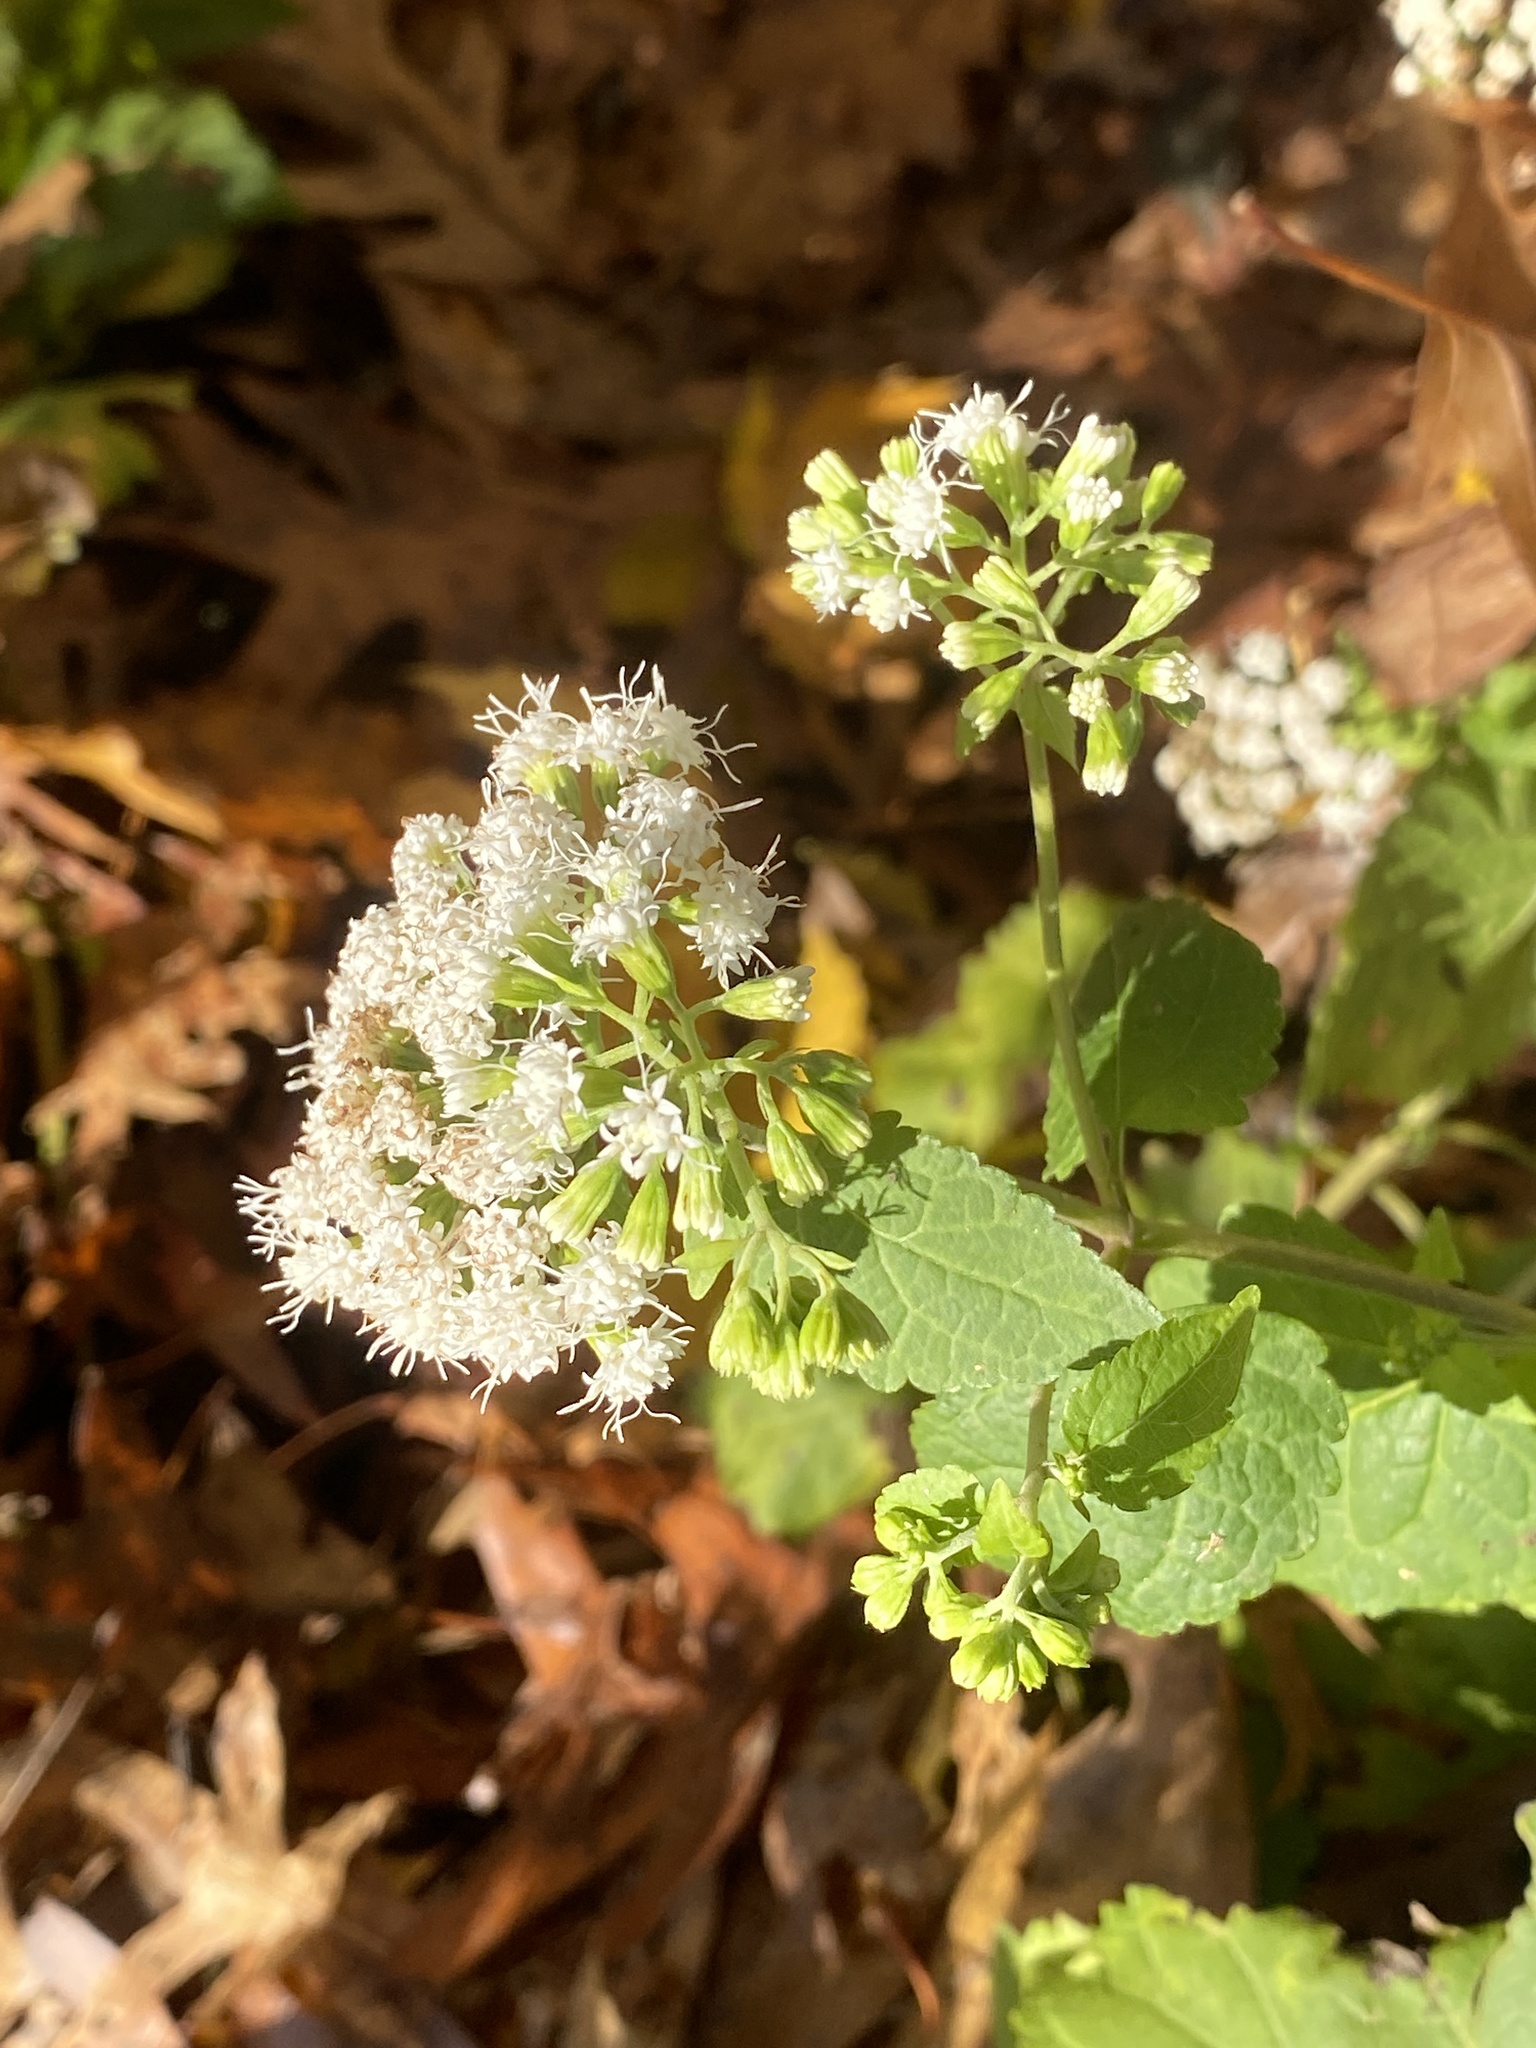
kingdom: Plantae
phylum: Tracheophyta
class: Magnoliopsida
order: Asterales
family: Asteraceae
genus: Ageratina
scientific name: Ageratina altissima
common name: White snakeroot
